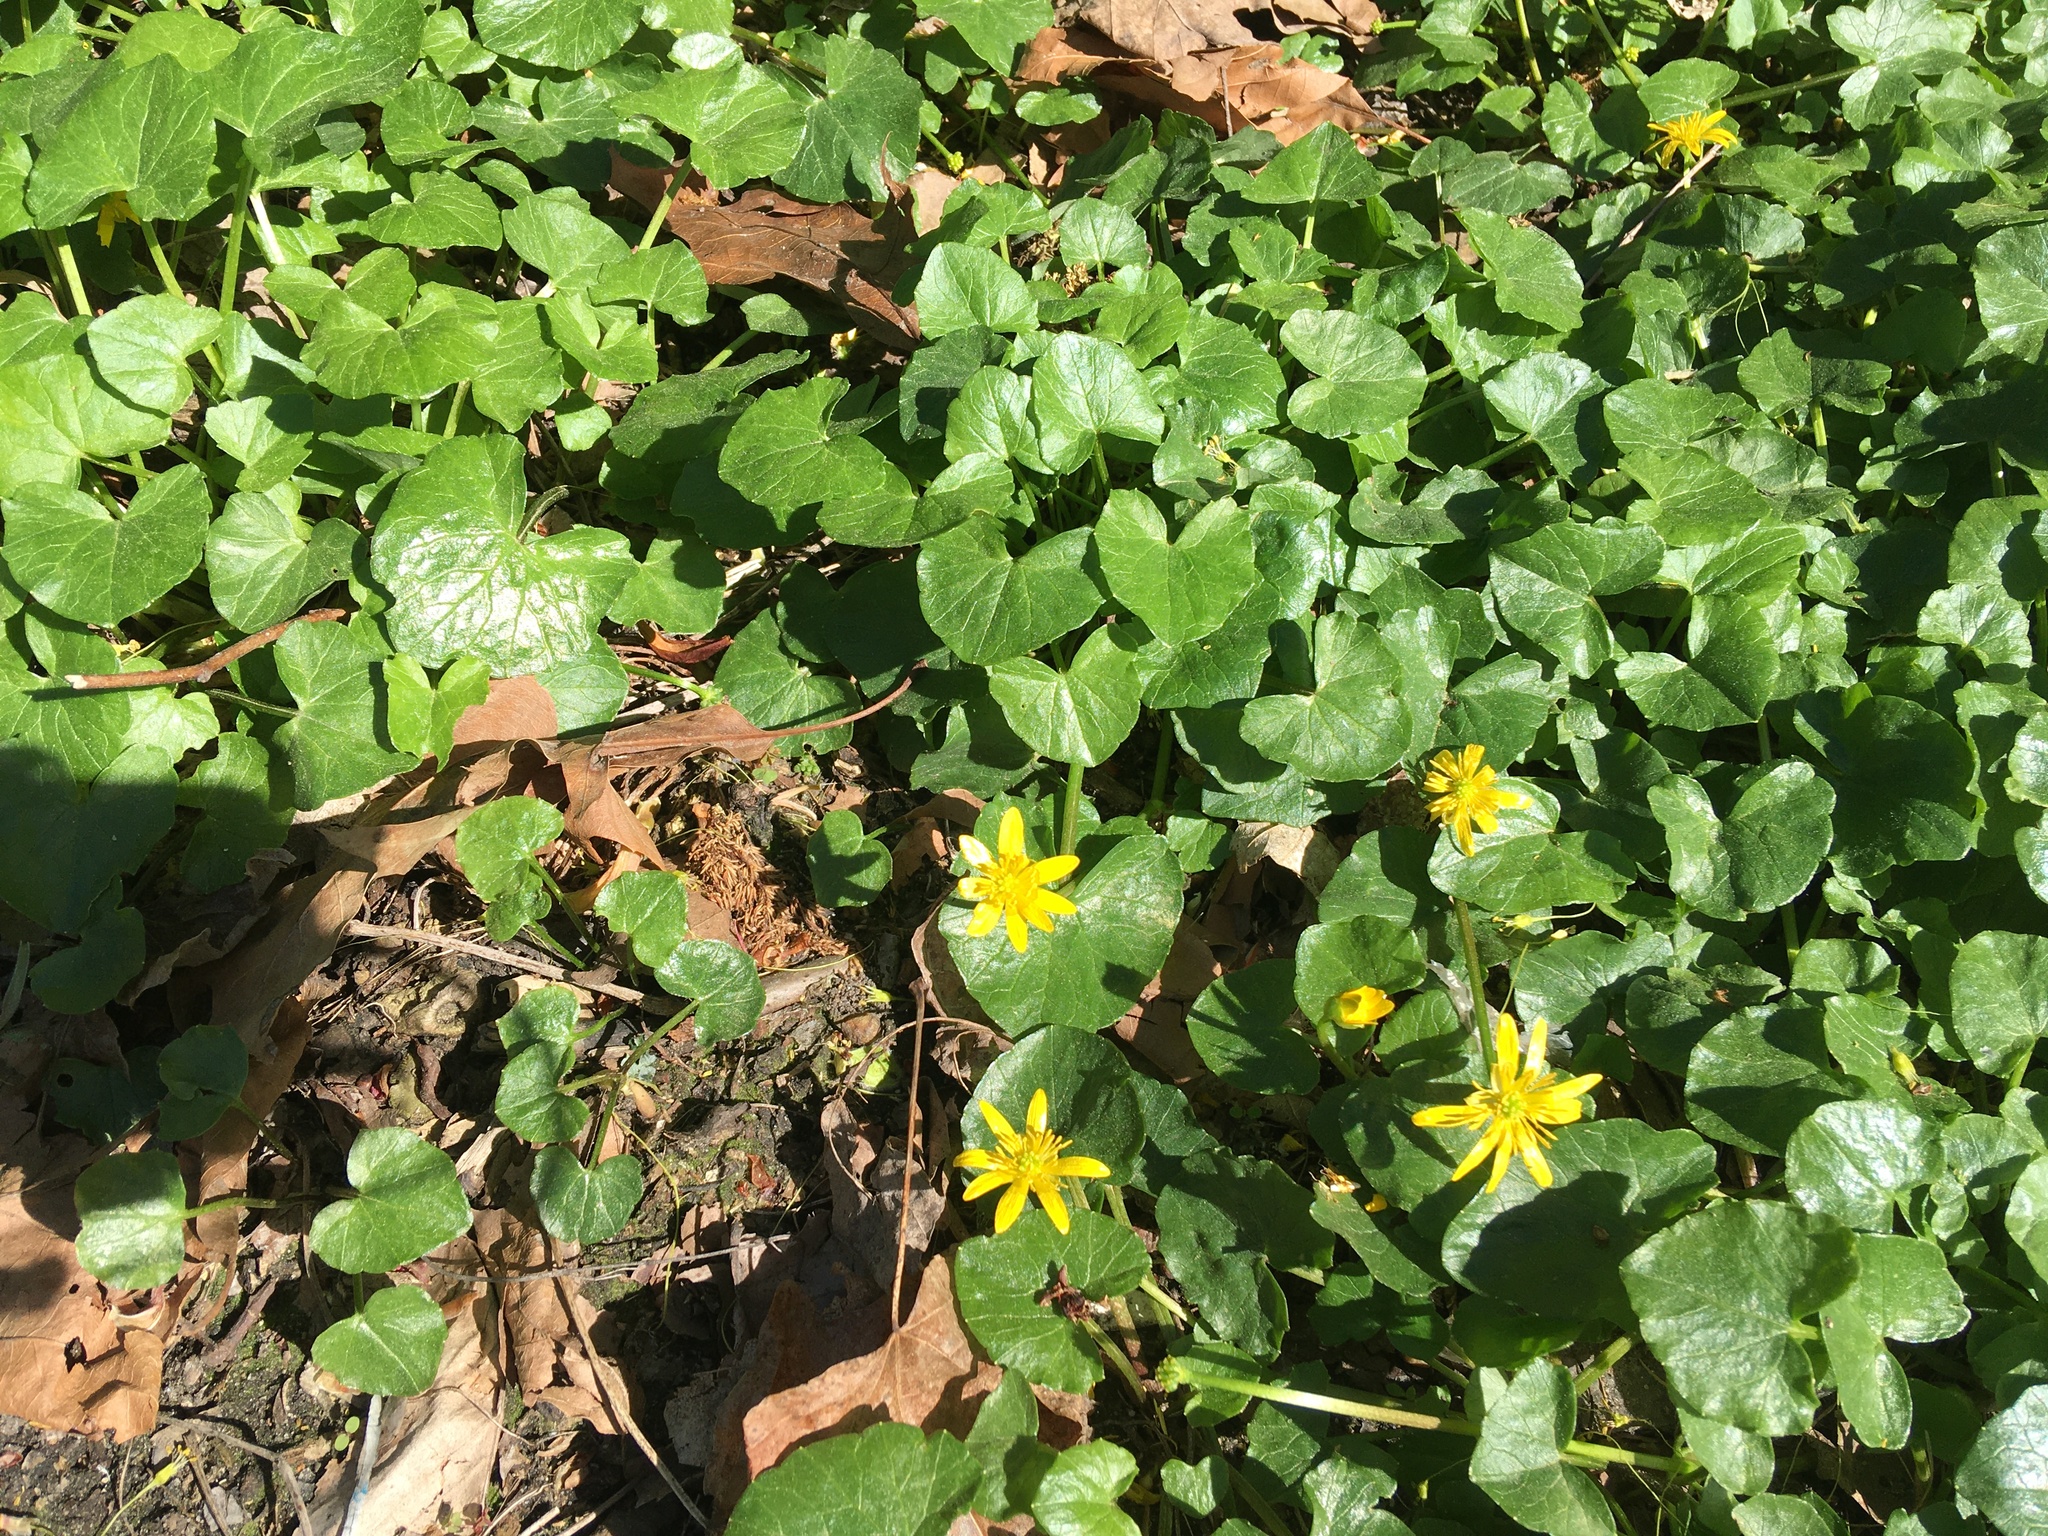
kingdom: Plantae
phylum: Tracheophyta
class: Magnoliopsida
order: Ranunculales
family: Ranunculaceae
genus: Ficaria
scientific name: Ficaria verna
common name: Lesser celandine
